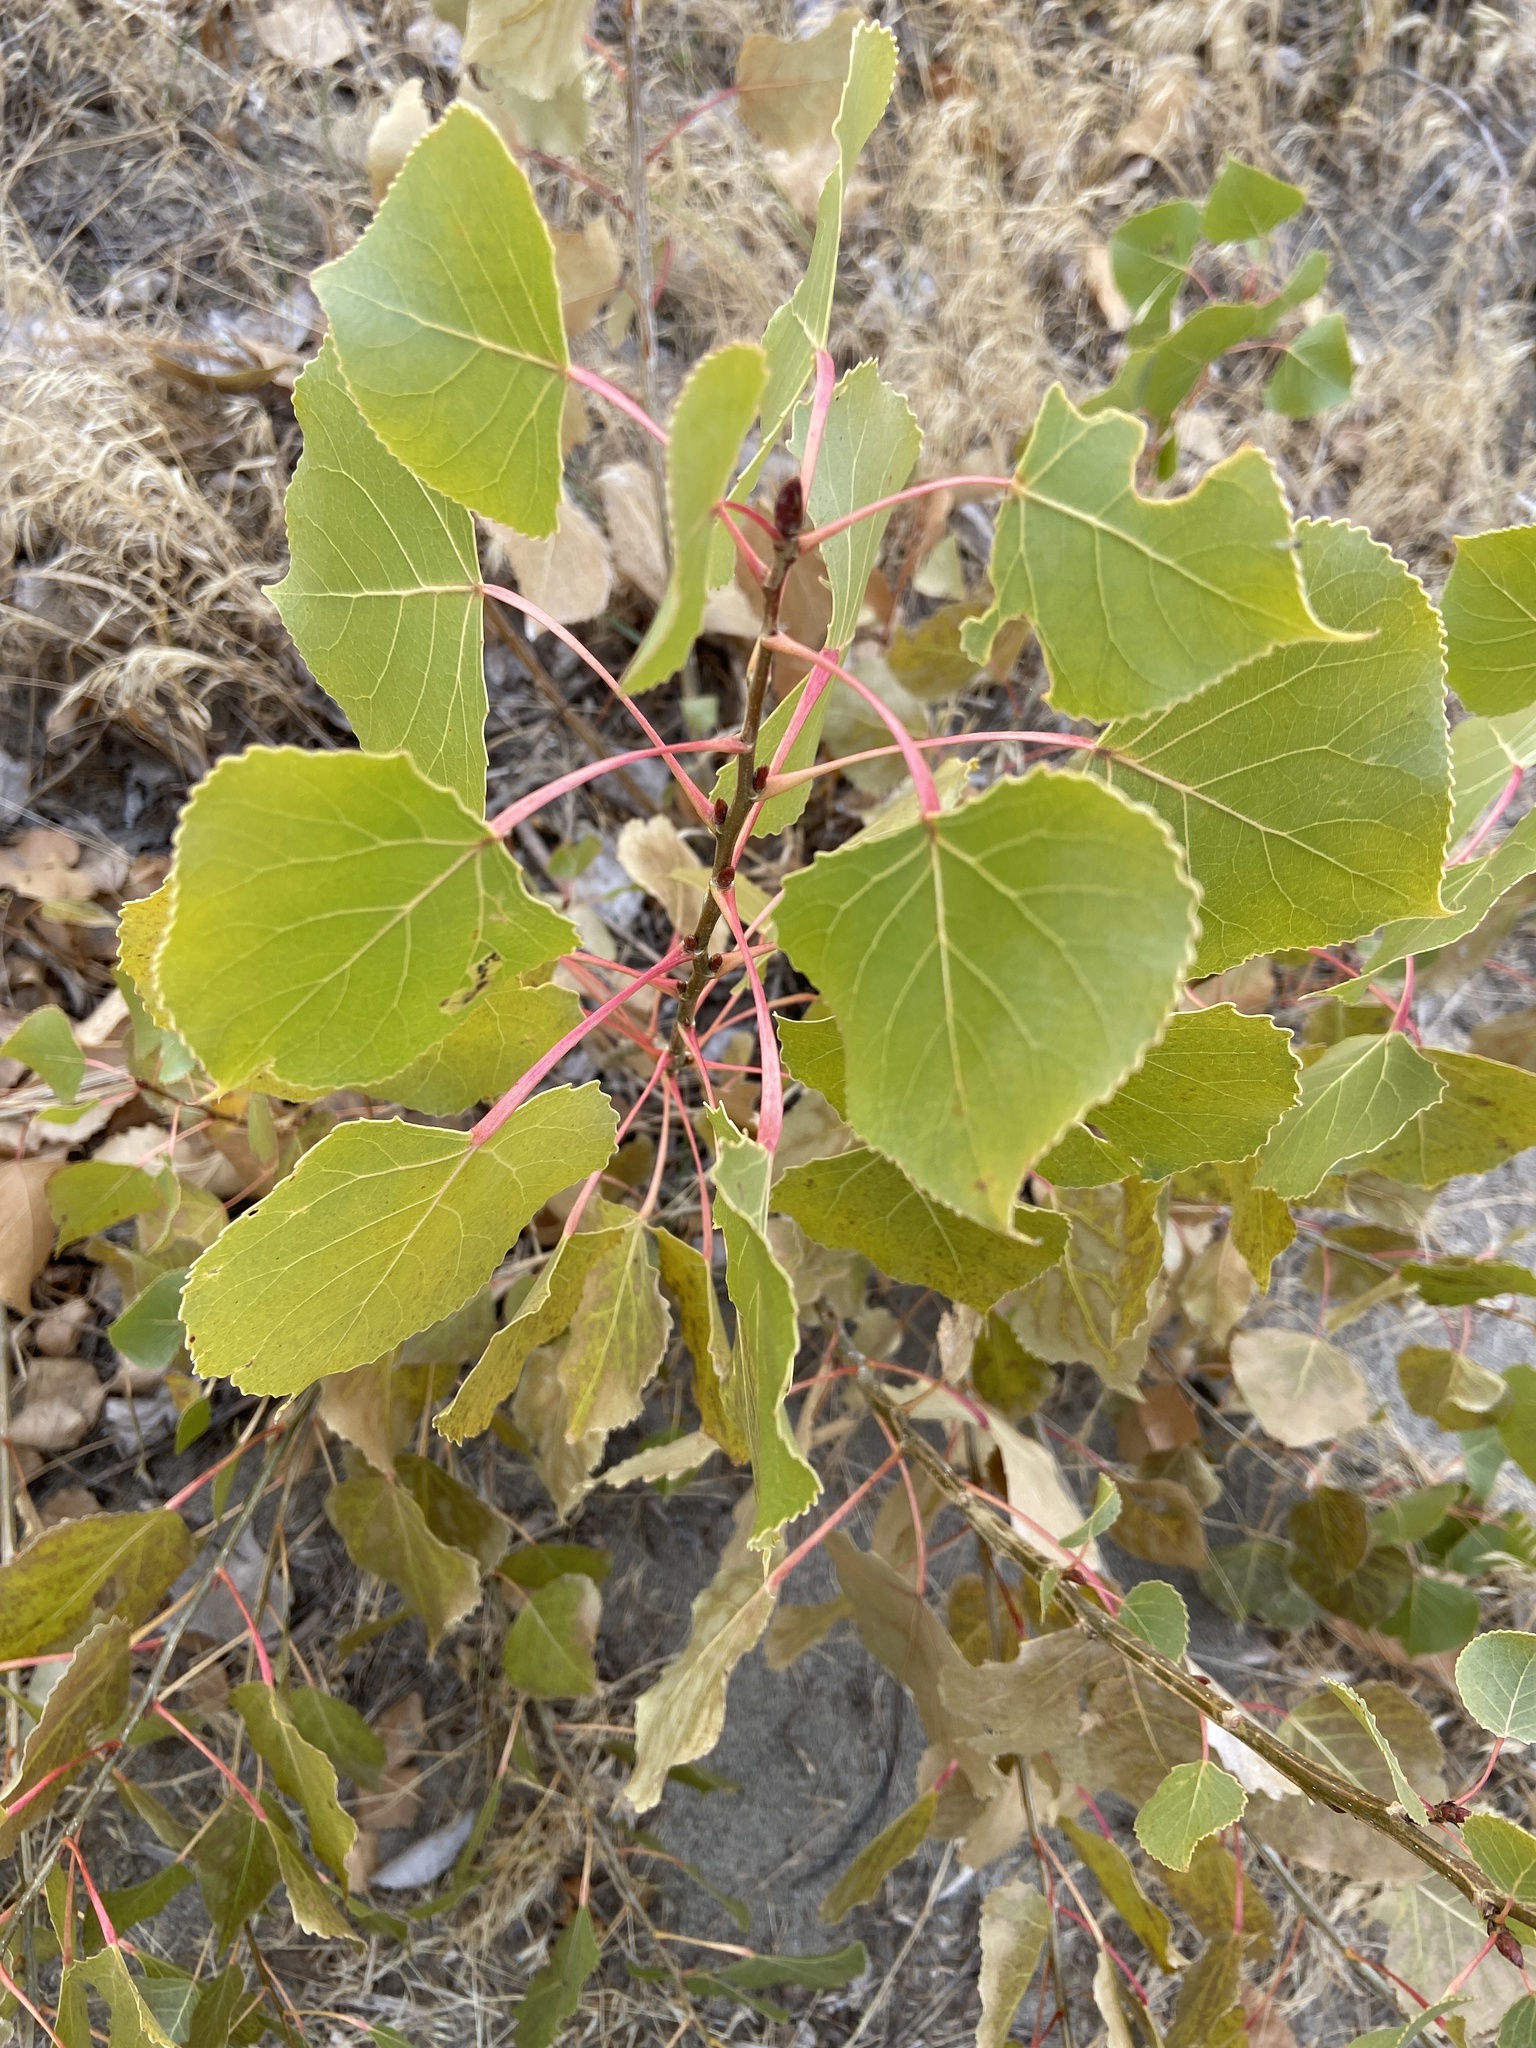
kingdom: Plantae
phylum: Tracheophyta
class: Magnoliopsida
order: Malpighiales
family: Salicaceae
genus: Populus
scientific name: Populus deltoides
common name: Eastern cottonwood
